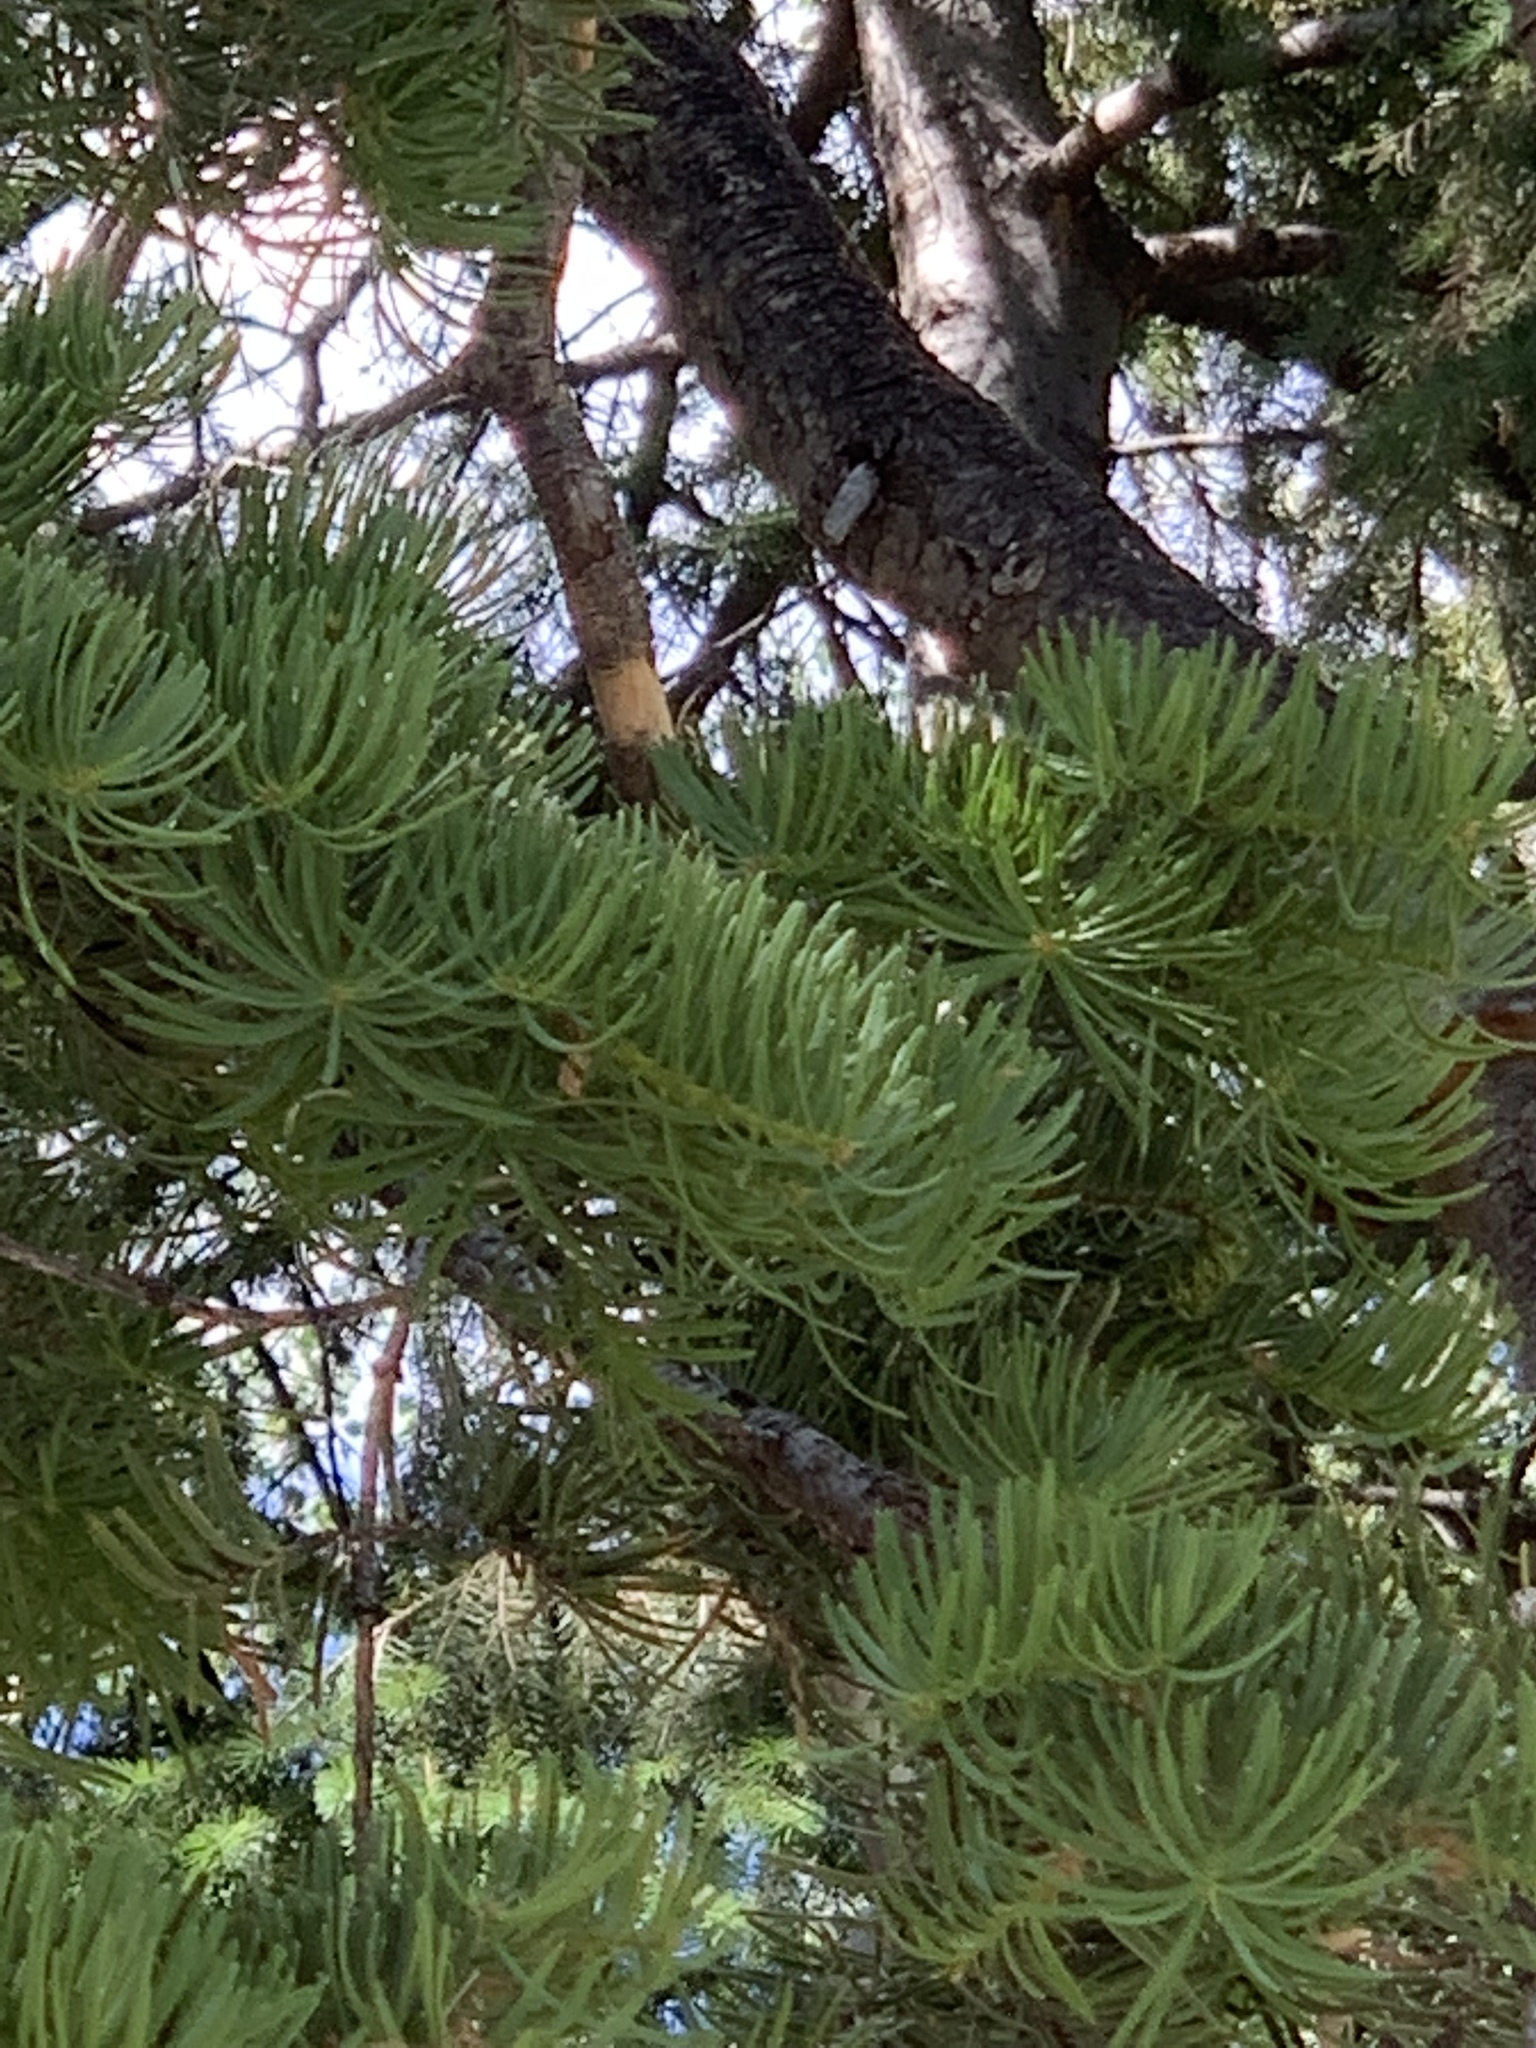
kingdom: Plantae
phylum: Tracheophyta
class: Pinopsida
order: Pinales
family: Pinaceae
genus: Abies
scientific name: Abies concolor
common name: Colorado fir
